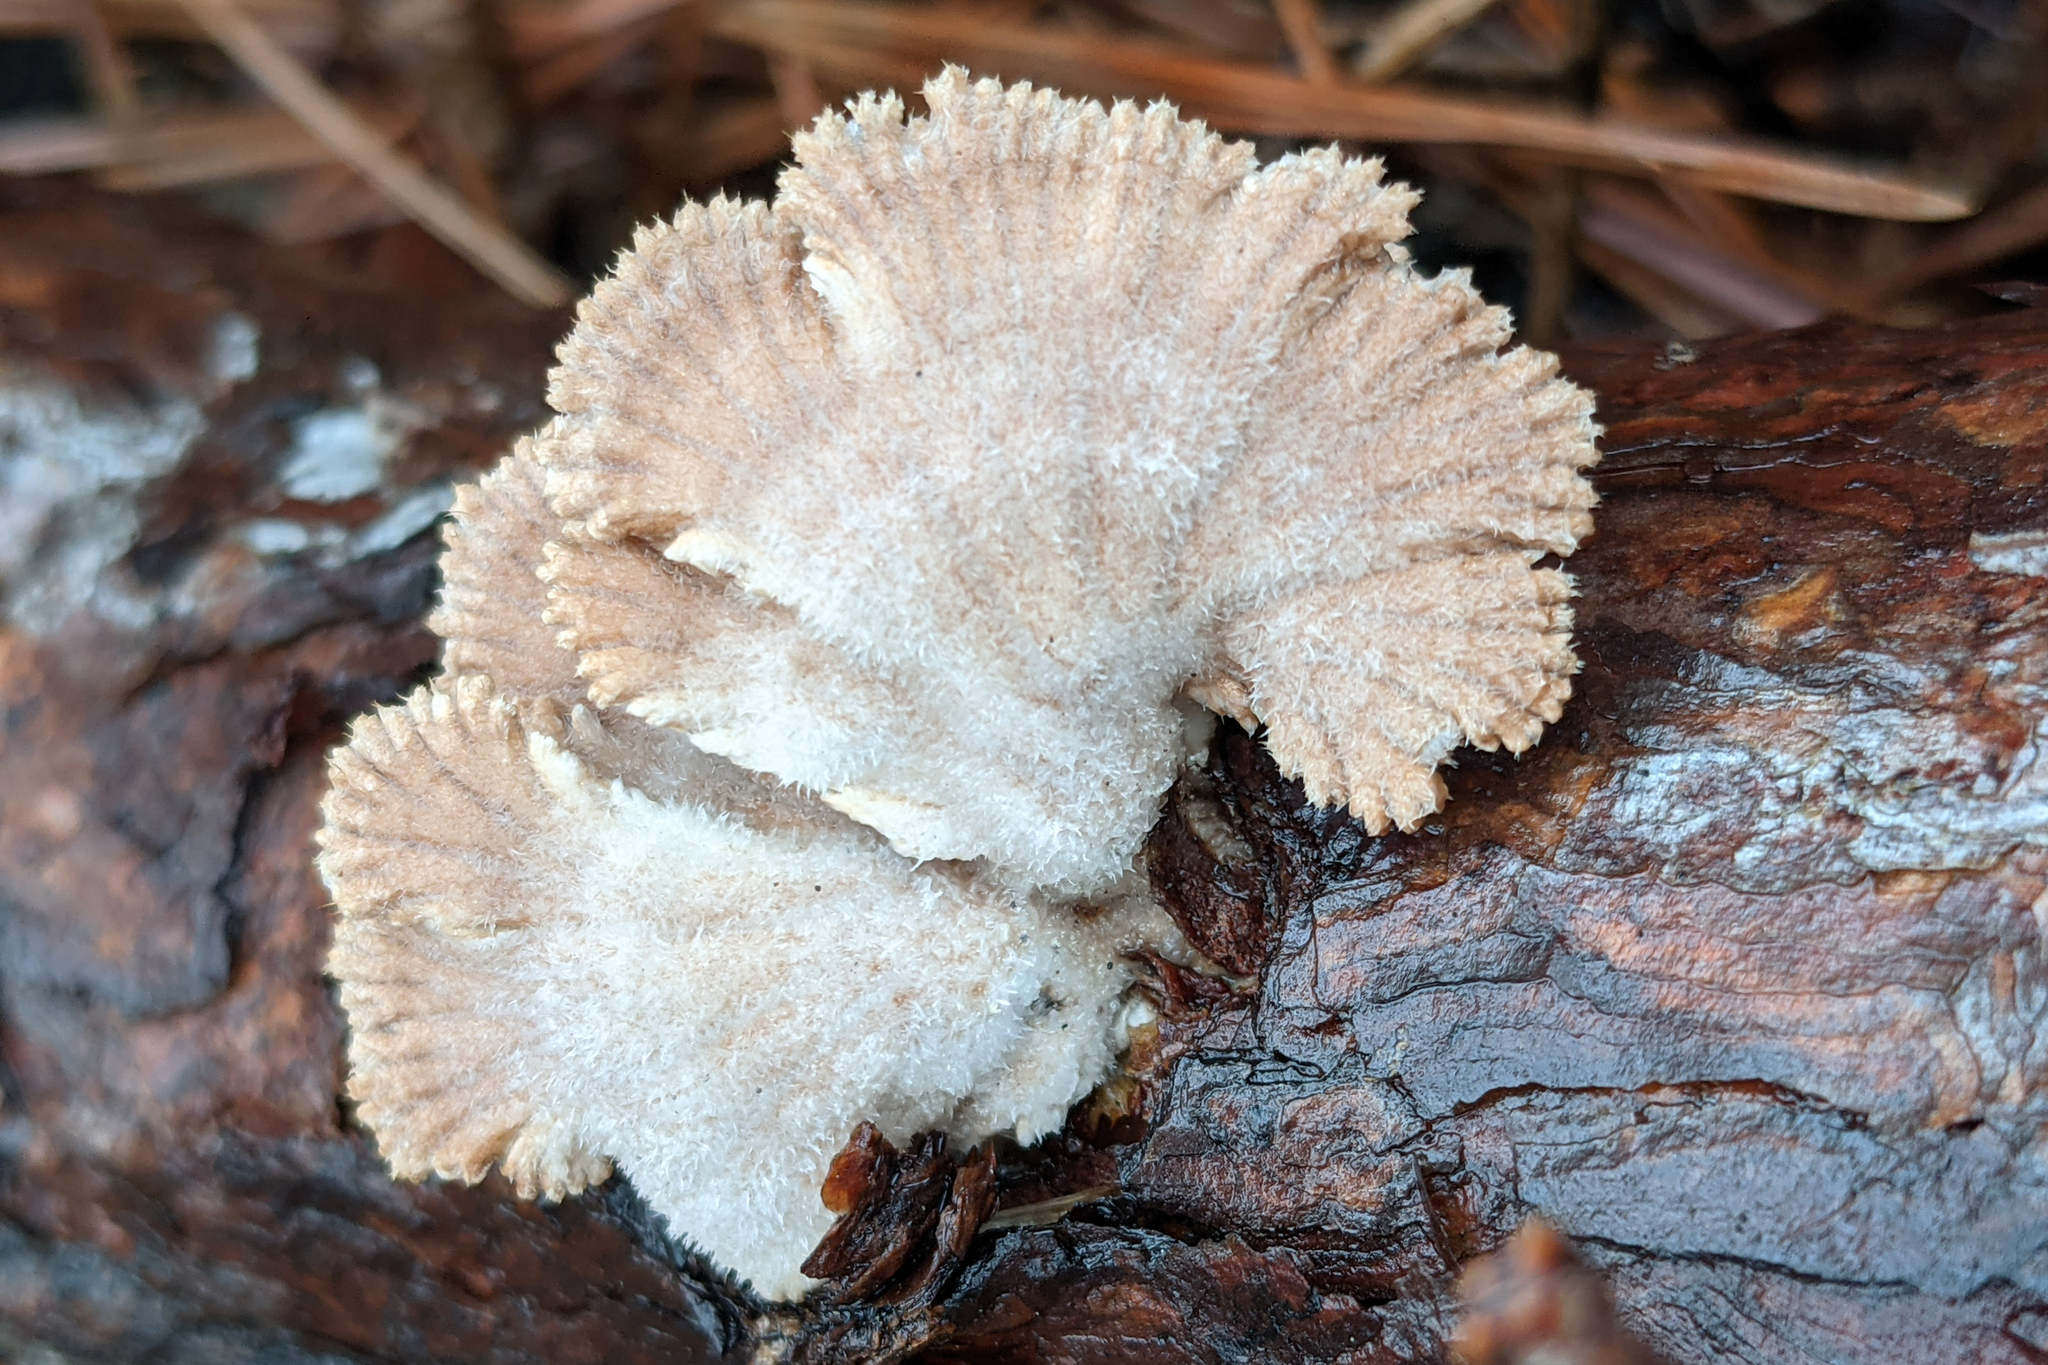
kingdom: Fungi
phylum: Basidiomycota
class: Agaricomycetes
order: Agaricales
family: Schizophyllaceae
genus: Schizophyllum
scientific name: Schizophyllum commune
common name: Common porecrust
